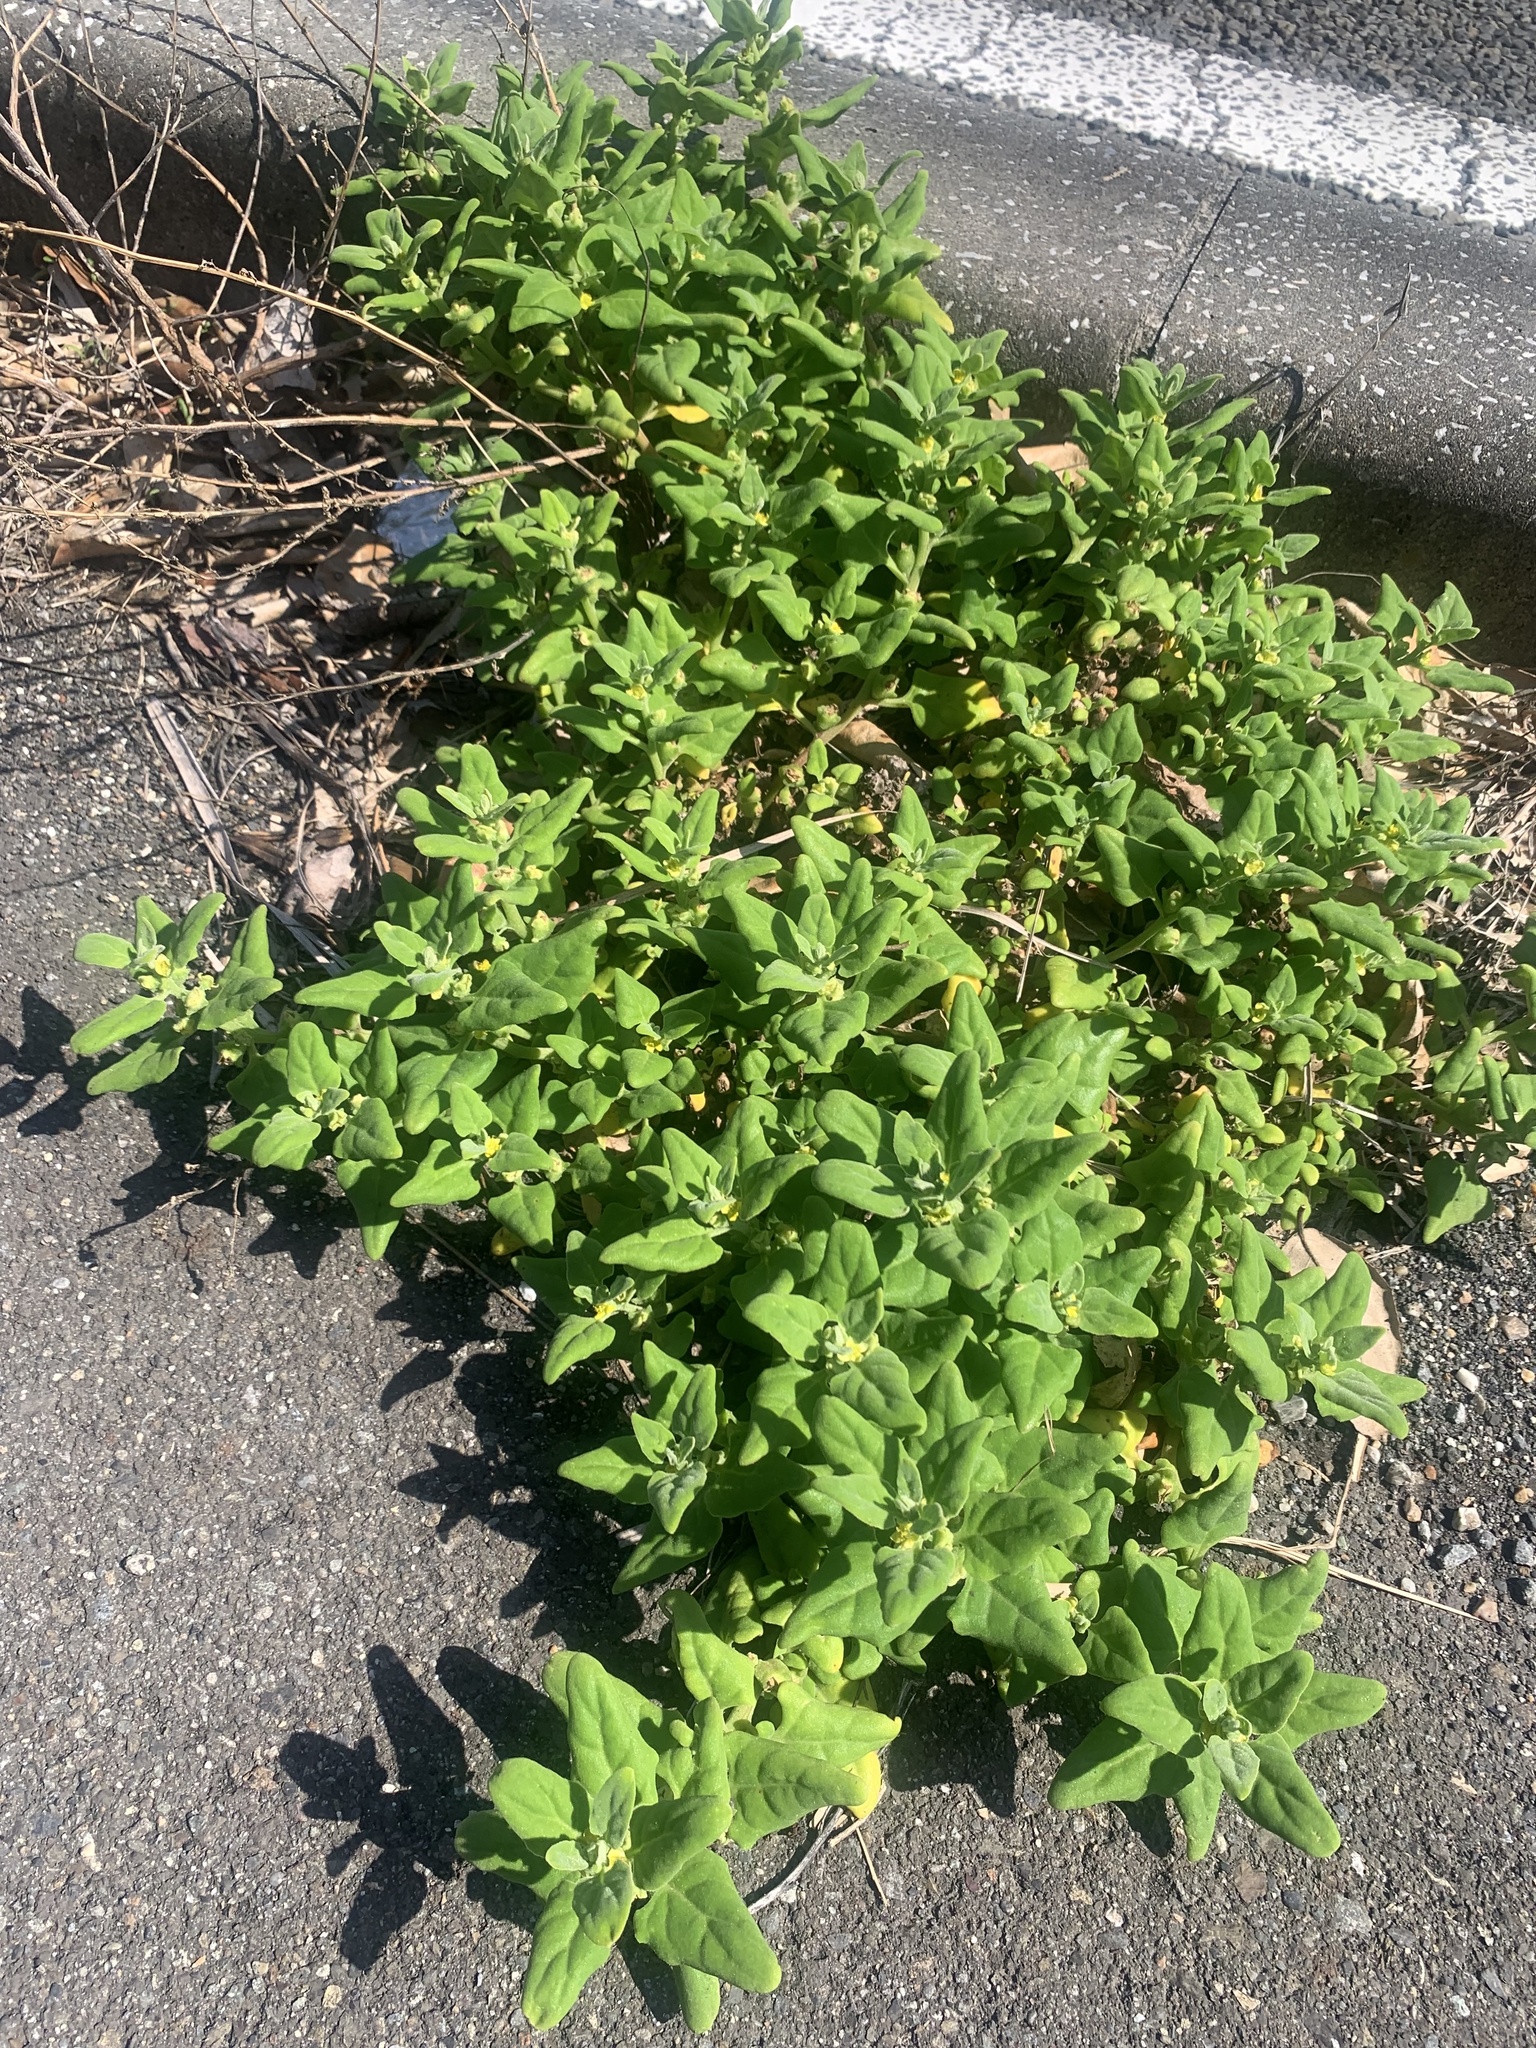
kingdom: Plantae
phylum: Tracheophyta
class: Magnoliopsida
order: Caryophyllales
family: Aizoaceae
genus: Tetragonia
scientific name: Tetragonia tetragonoides
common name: New zealand-spinach
